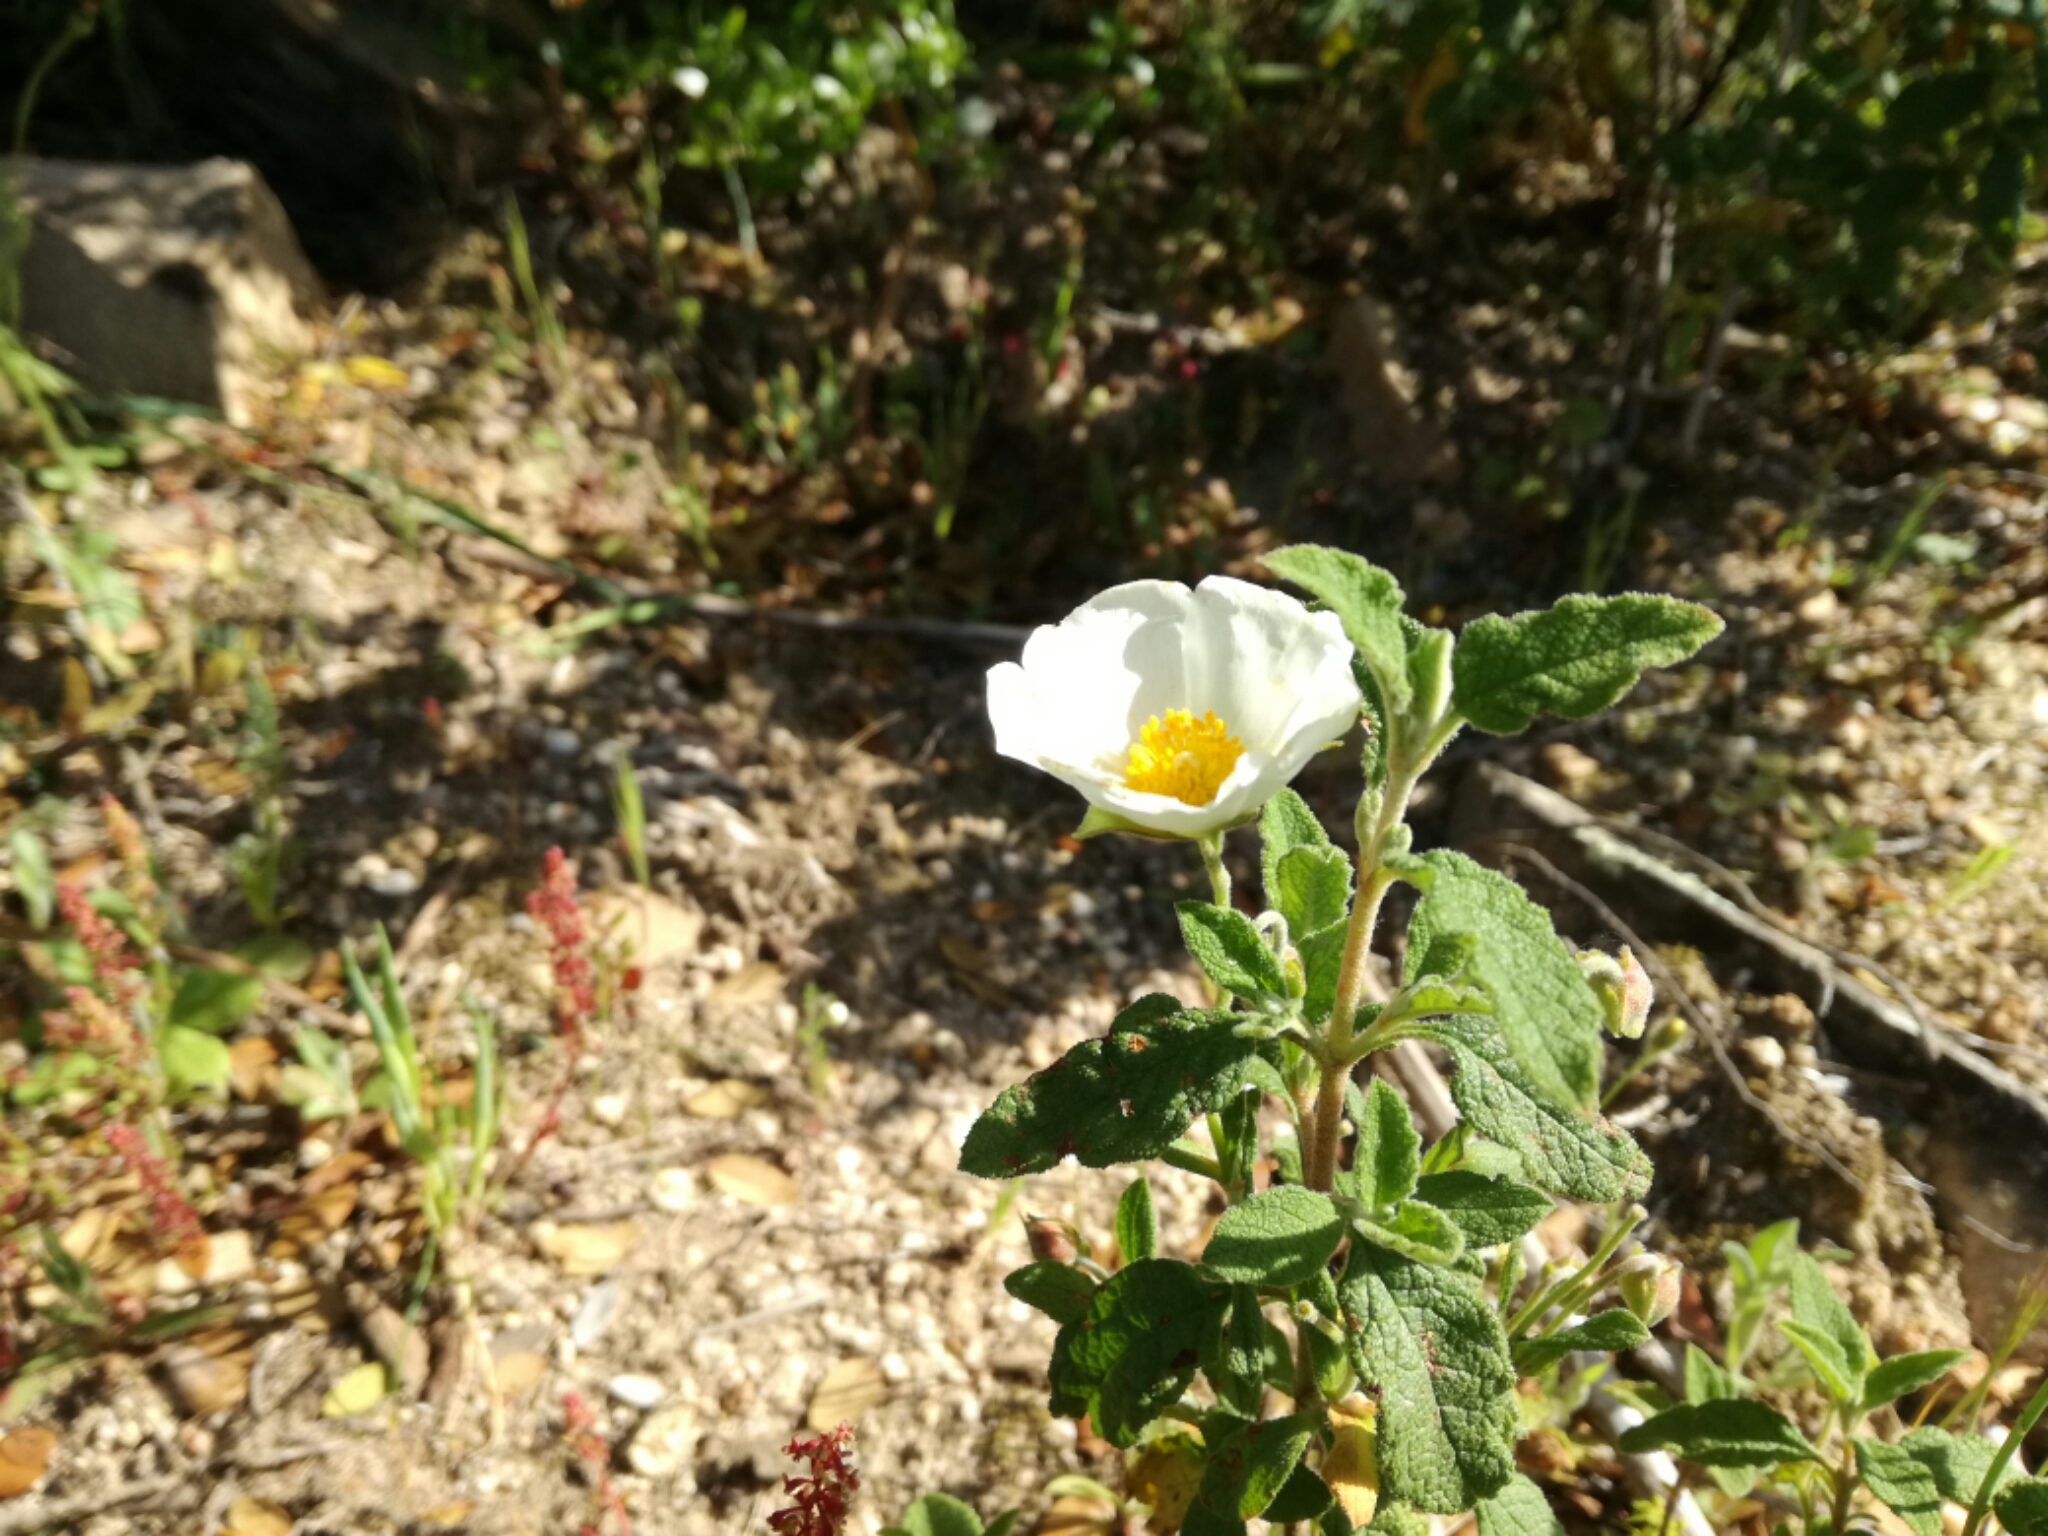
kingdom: Plantae
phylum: Tracheophyta
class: Magnoliopsida
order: Malvales
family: Cistaceae
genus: Cistus
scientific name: Cistus salviifolius
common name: Salvia cistus
